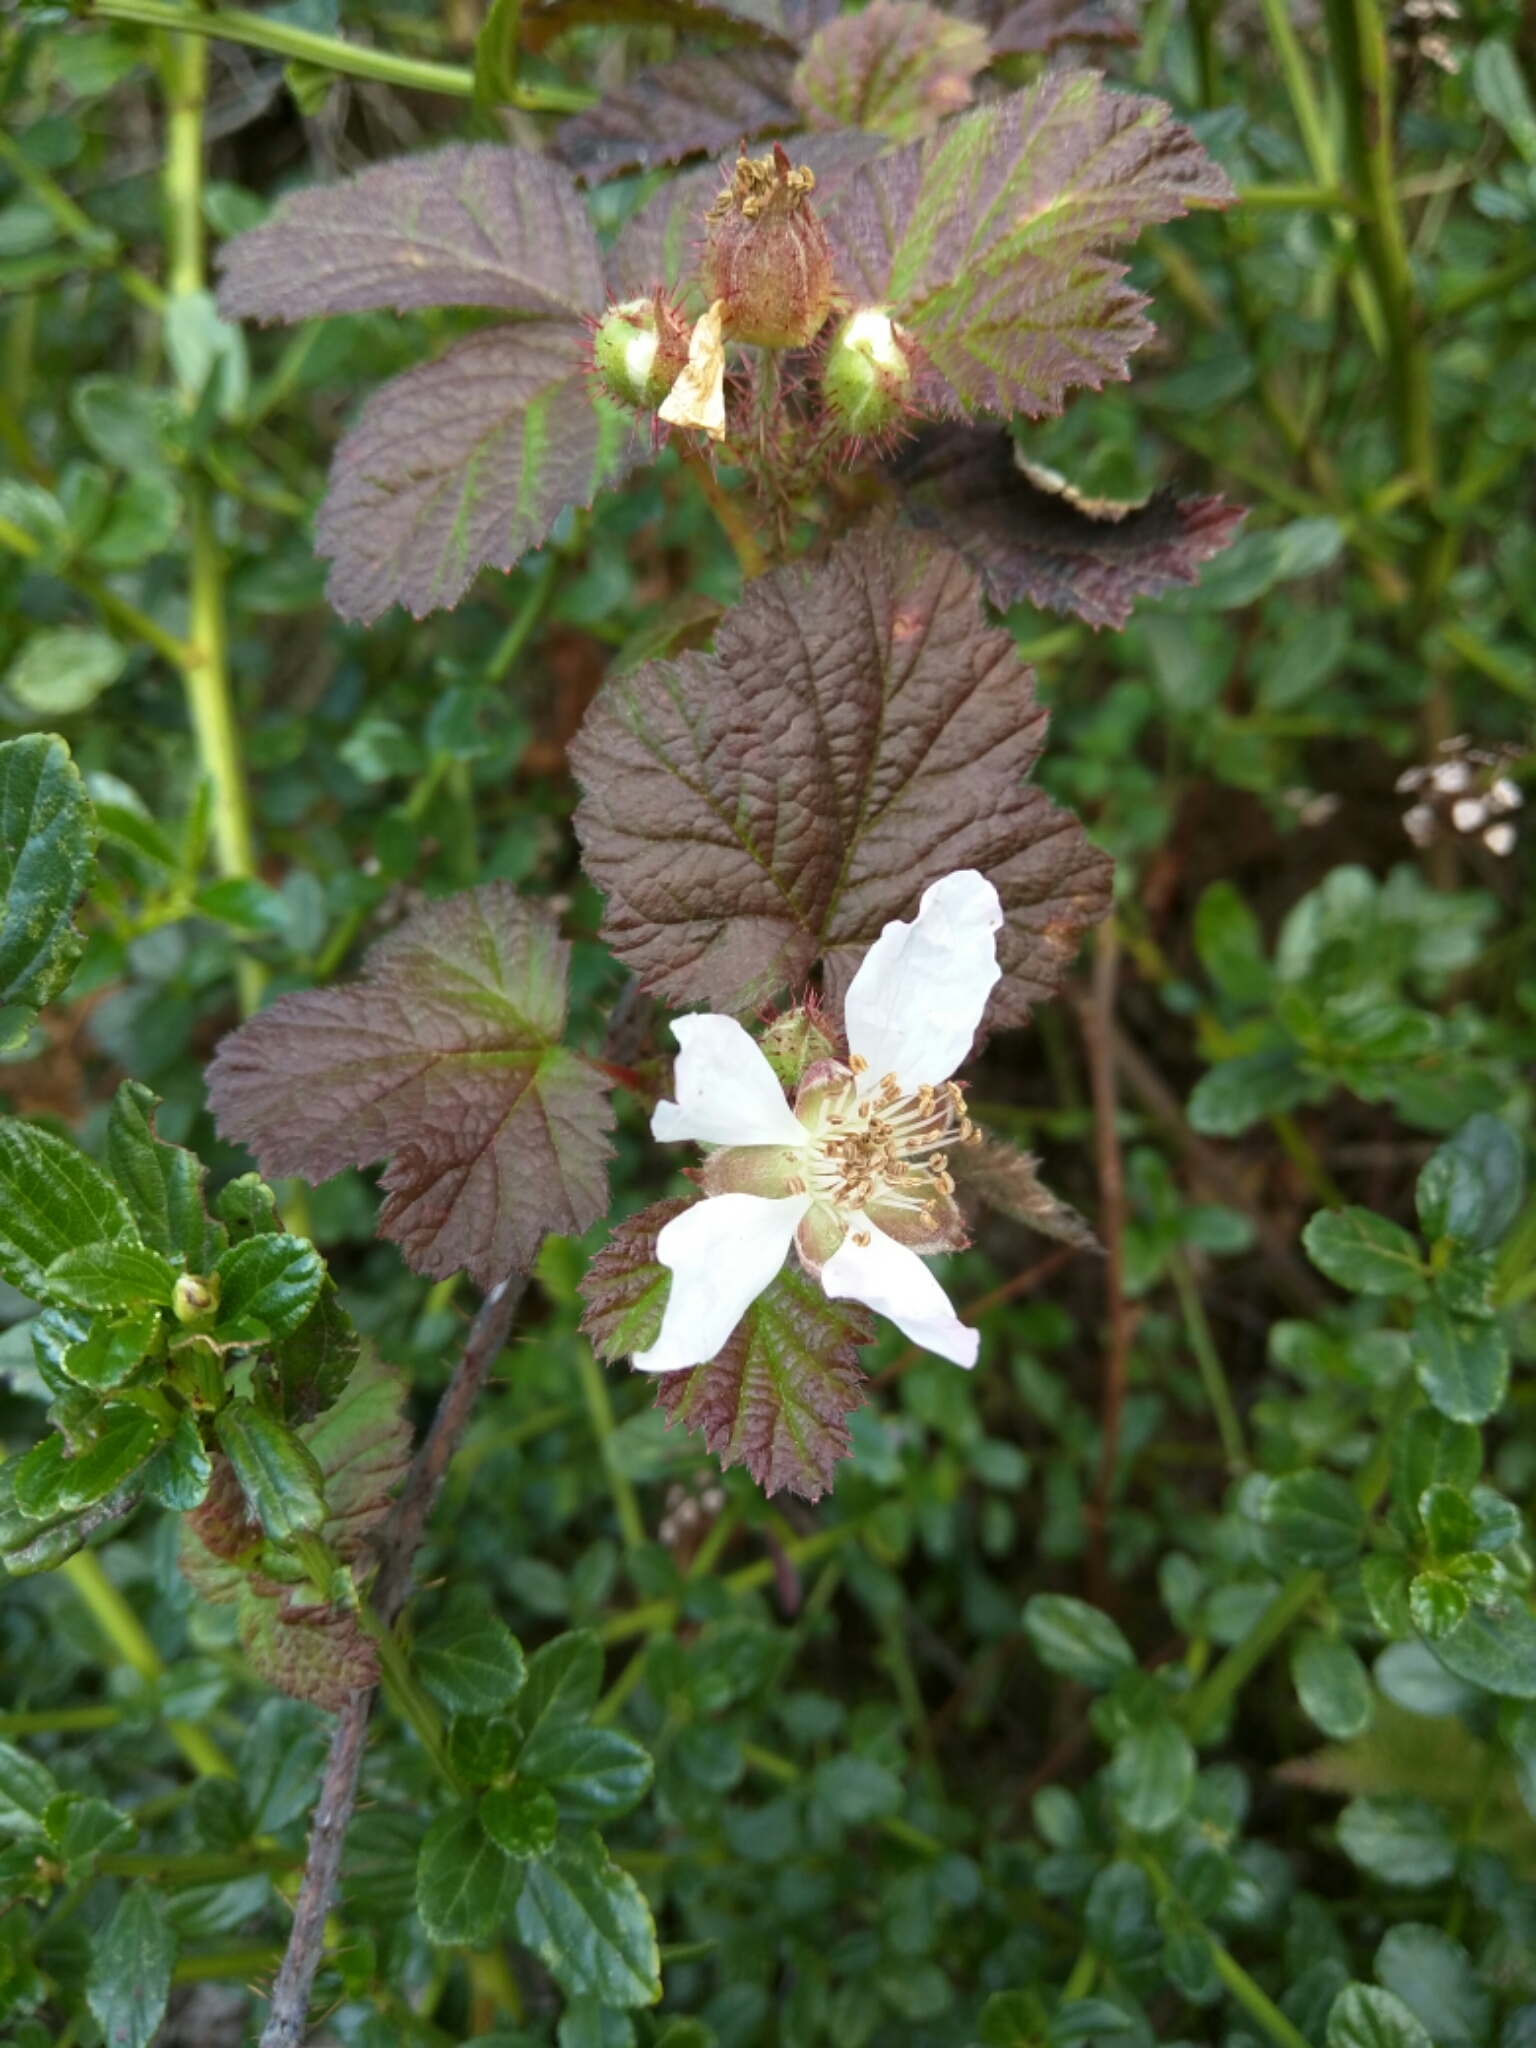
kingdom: Plantae
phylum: Tracheophyta
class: Magnoliopsida
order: Rosales
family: Rosaceae
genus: Rubus
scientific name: Rubus ursinus
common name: Pacific blackberry
